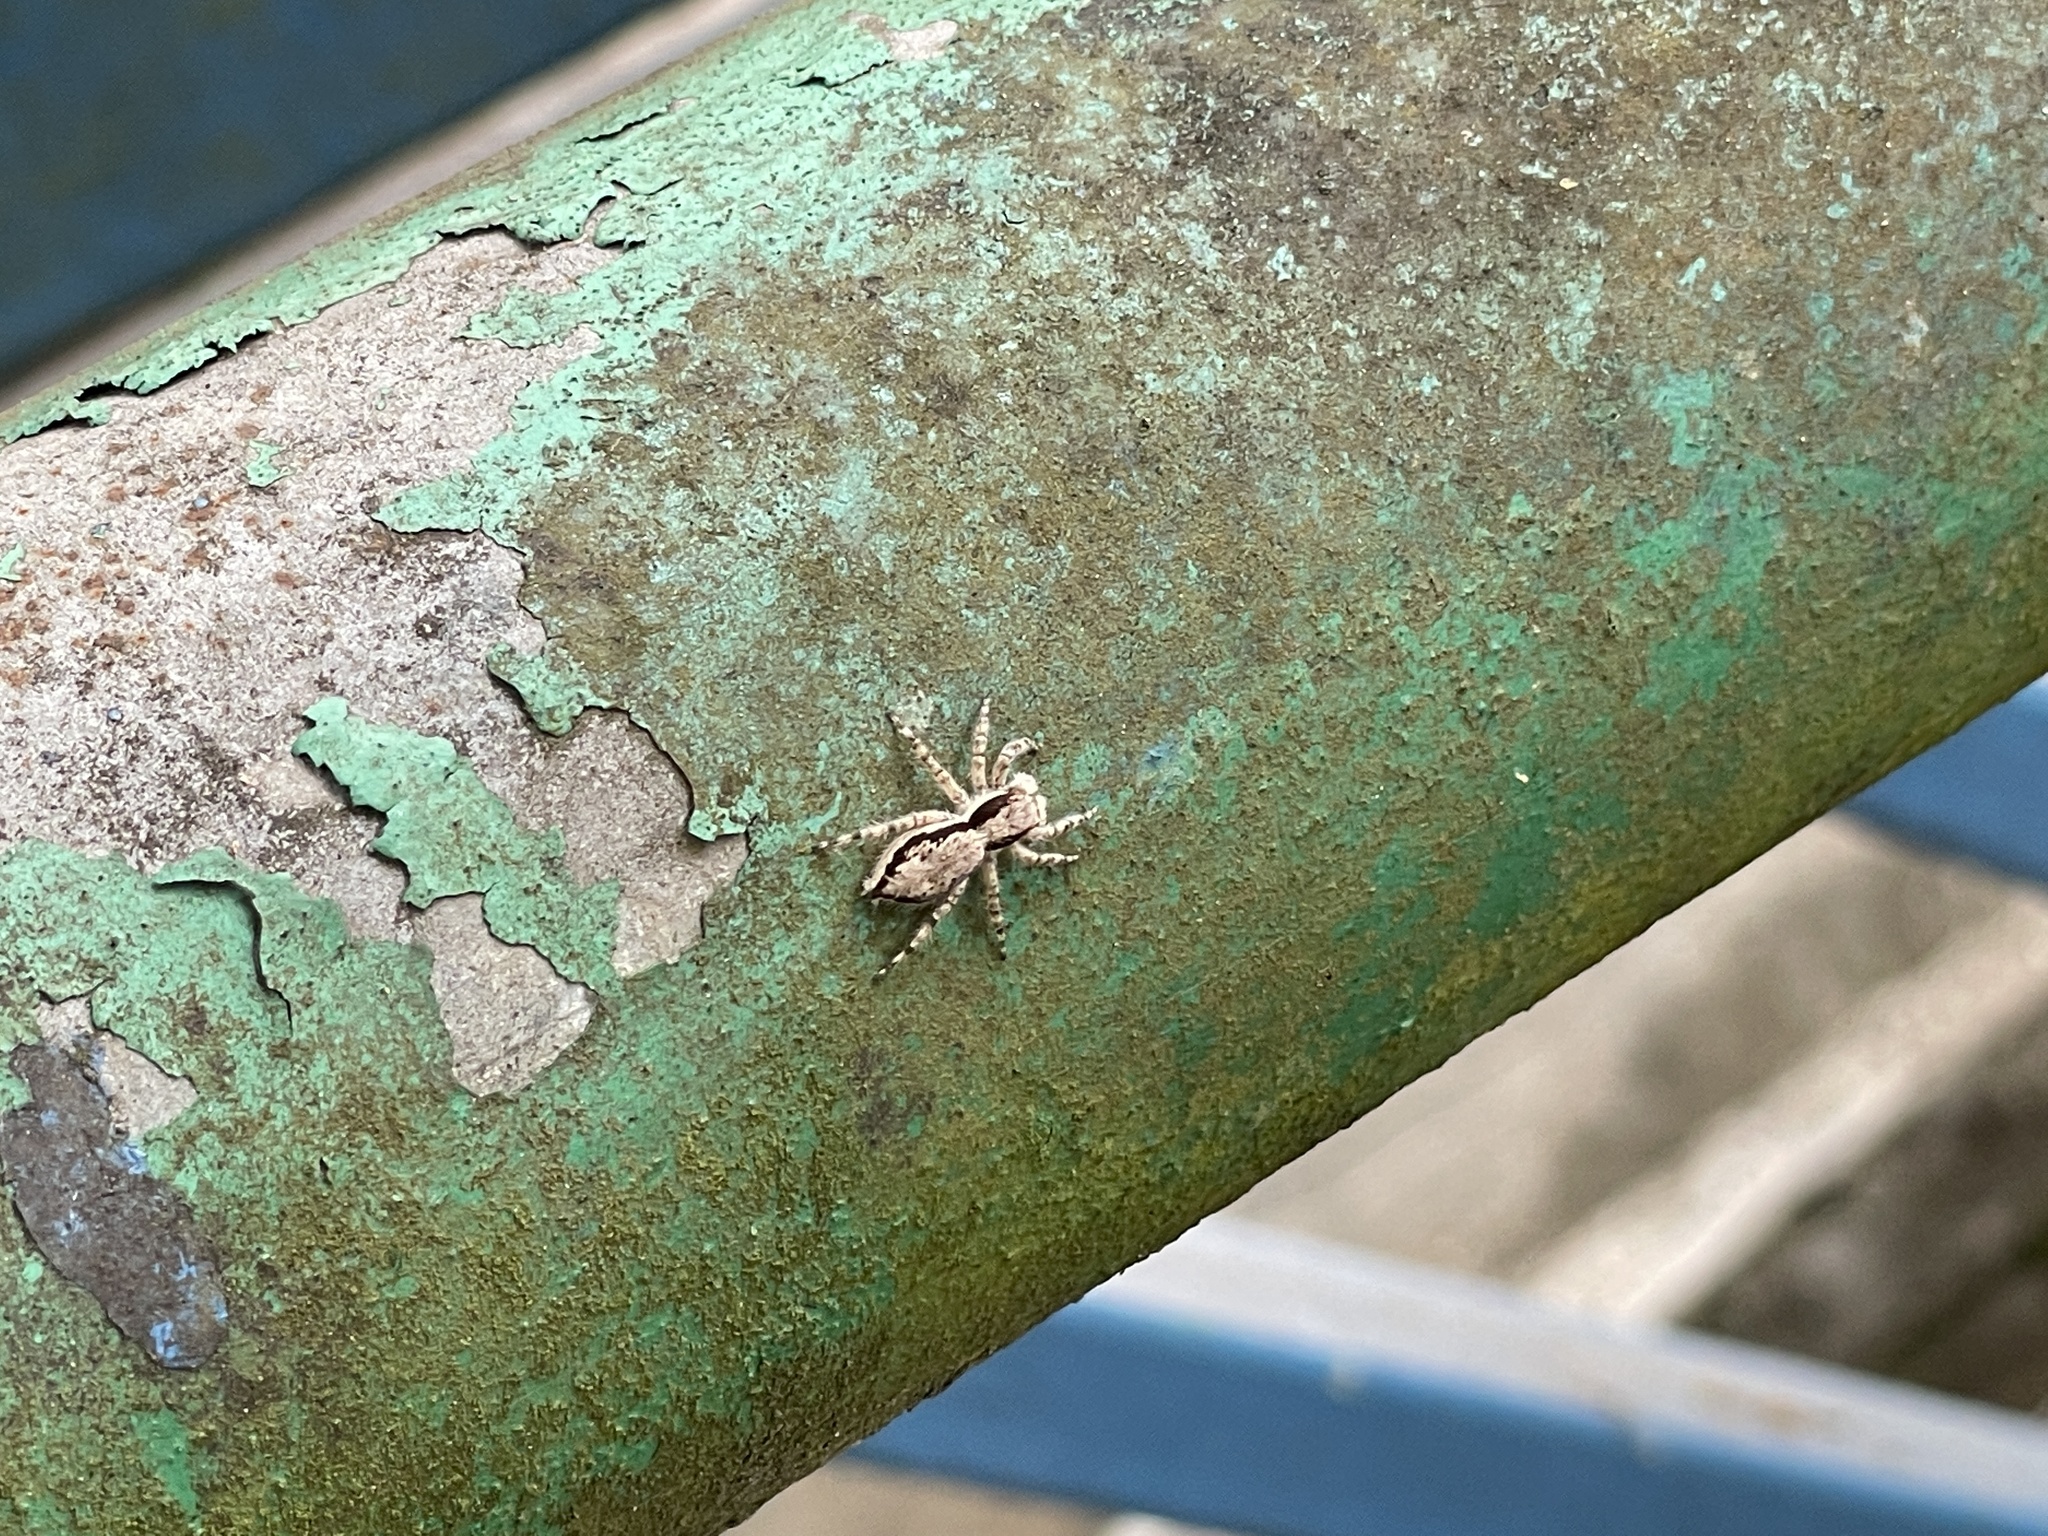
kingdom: Animalia
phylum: Arthropoda
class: Arachnida
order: Araneae
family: Salticidae
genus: Menemerus
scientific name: Menemerus bivittatus
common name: Gray wall jumper
